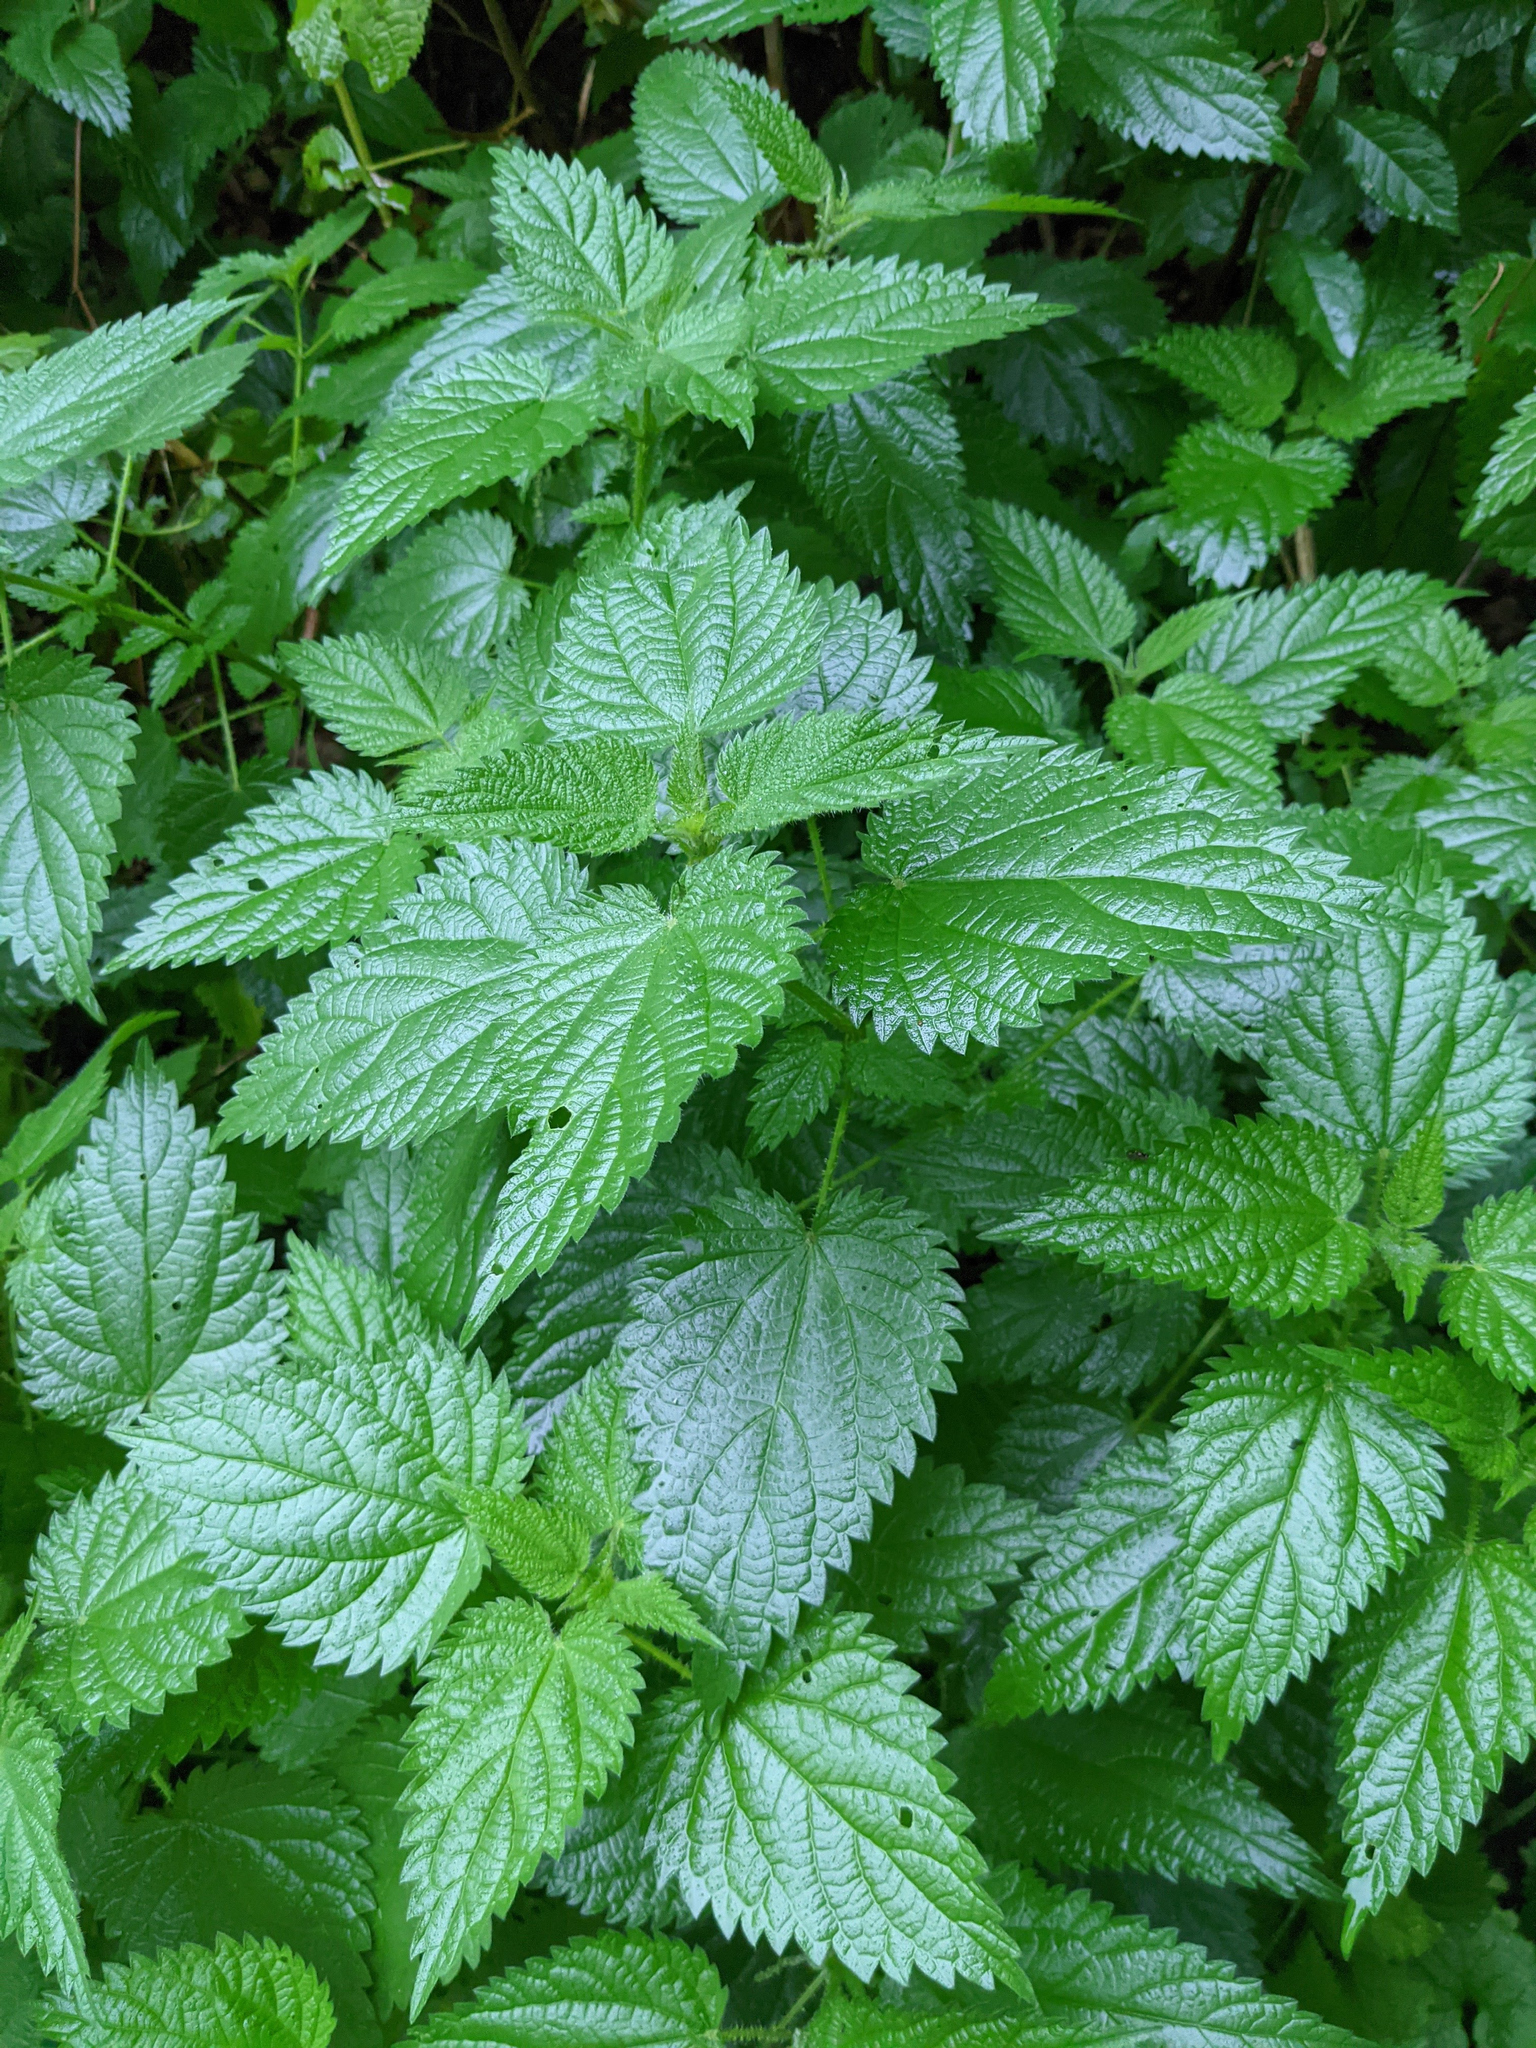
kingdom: Plantae
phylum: Tracheophyta
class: Magnoliopsida
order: Rosales
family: Urticaceae
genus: Urtica
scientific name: Urtica dioica
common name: Common nettle
